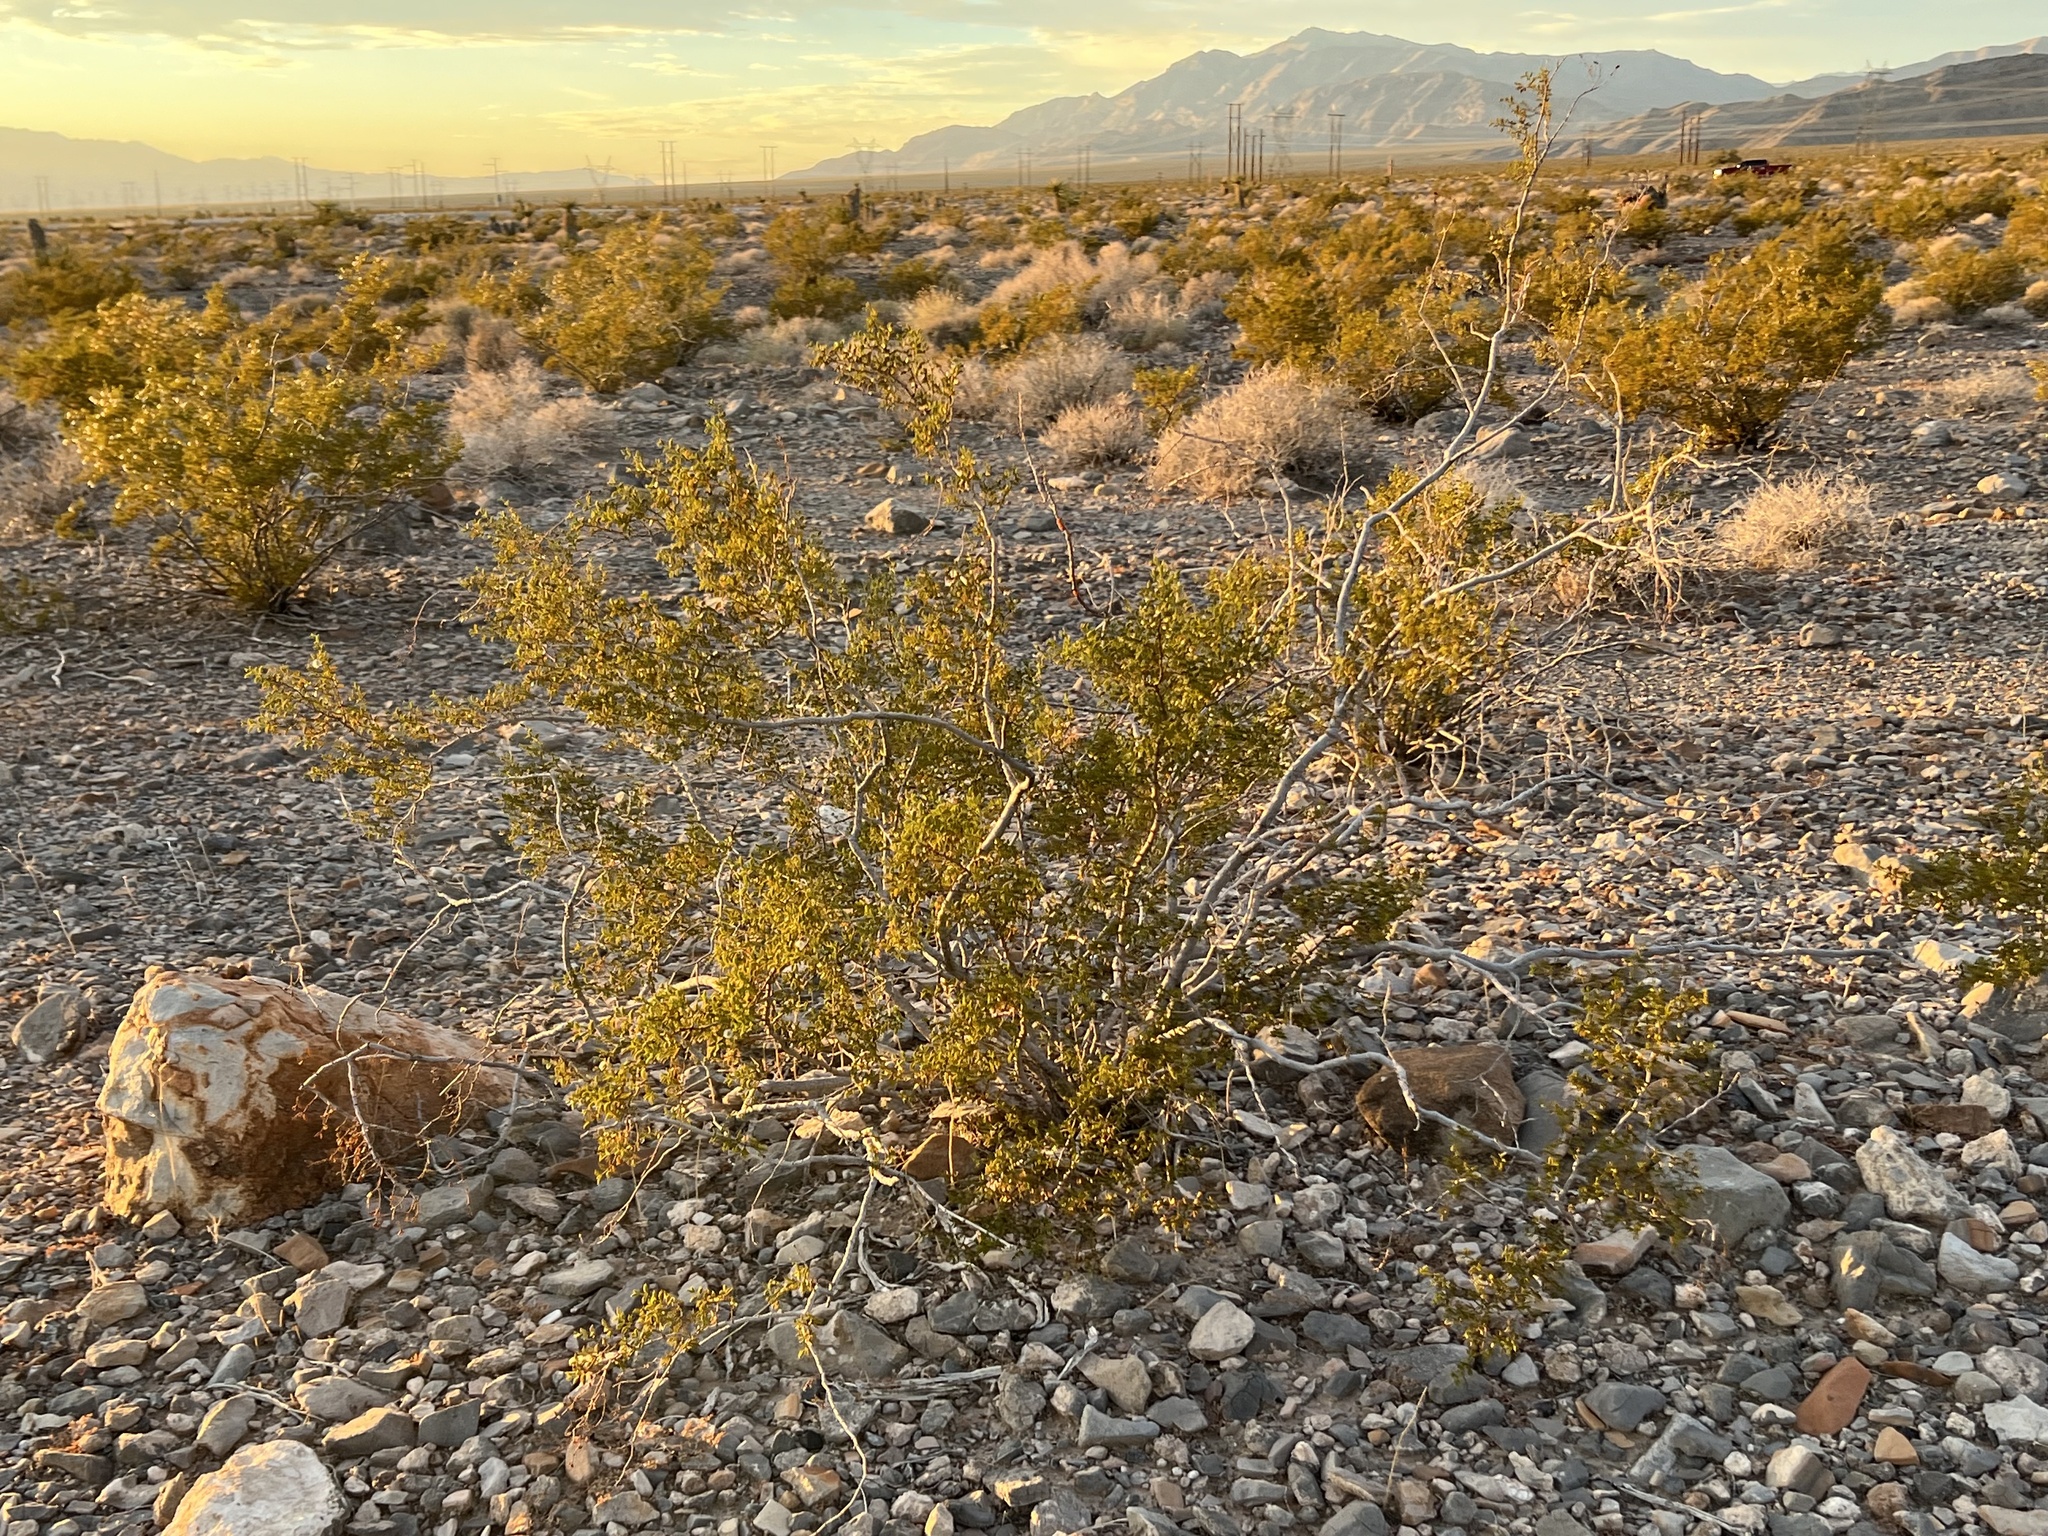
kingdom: Plantae
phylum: Tracheophyta
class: Magnoliopsida
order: Zygophyllales
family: Zygophyllaceae
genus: Larrea
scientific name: Larrea tridentata
